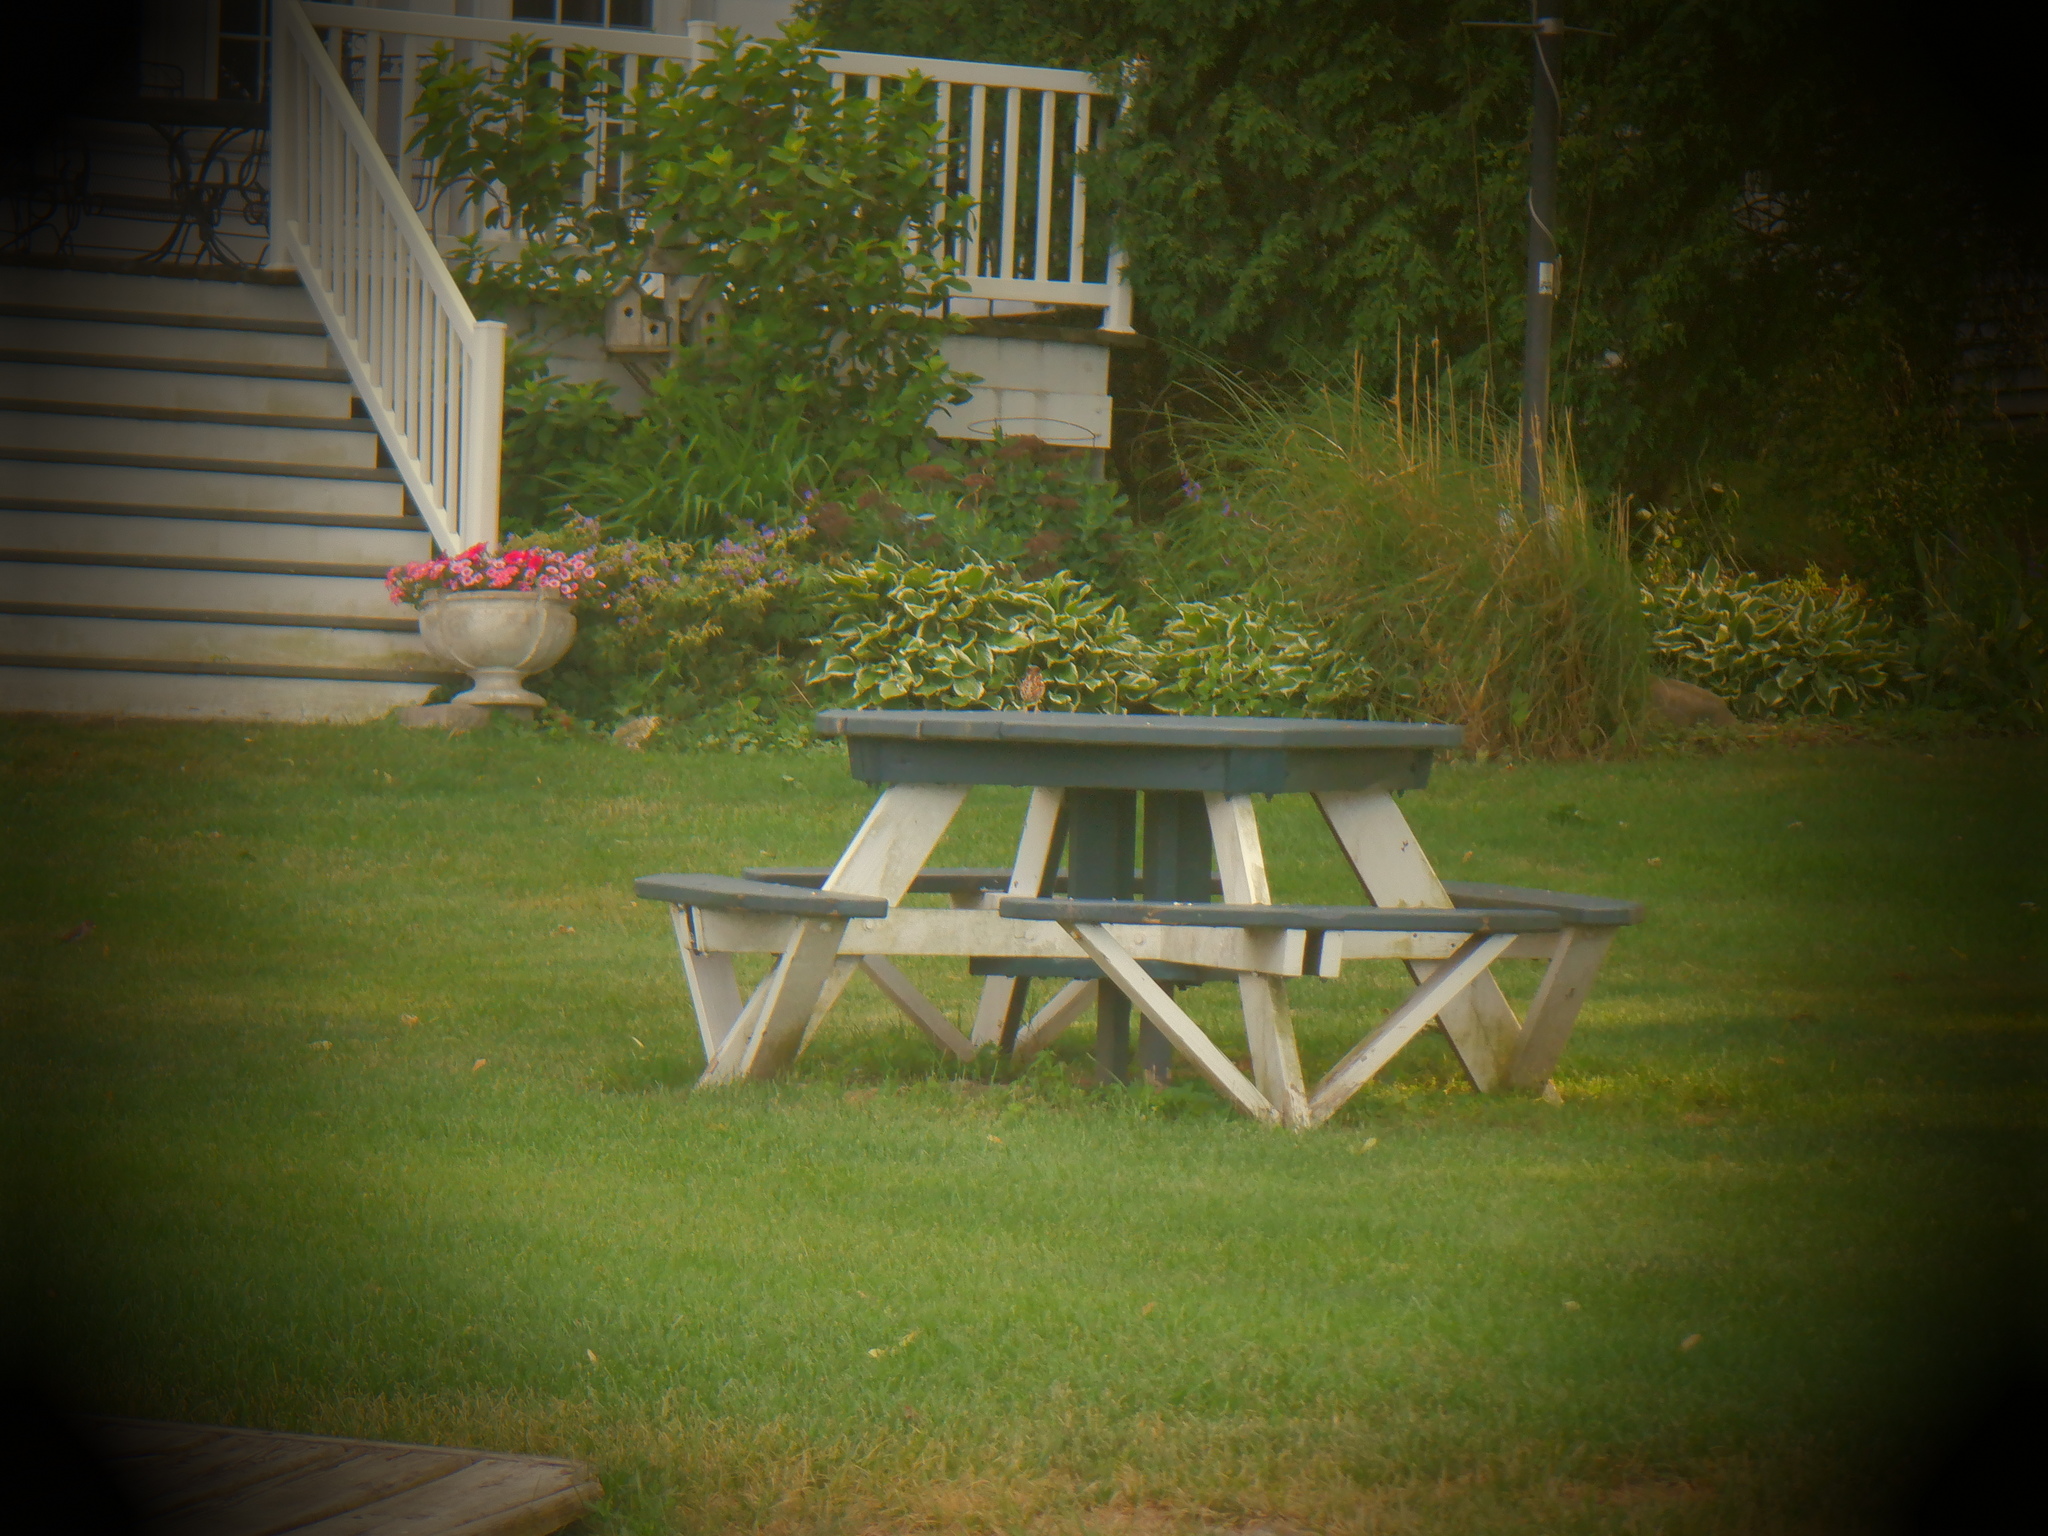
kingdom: Animalia
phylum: Chordata
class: Aves
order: Passeriformes
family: Passeridae
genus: Passer
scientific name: Passer domesticus
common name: House sparrow
